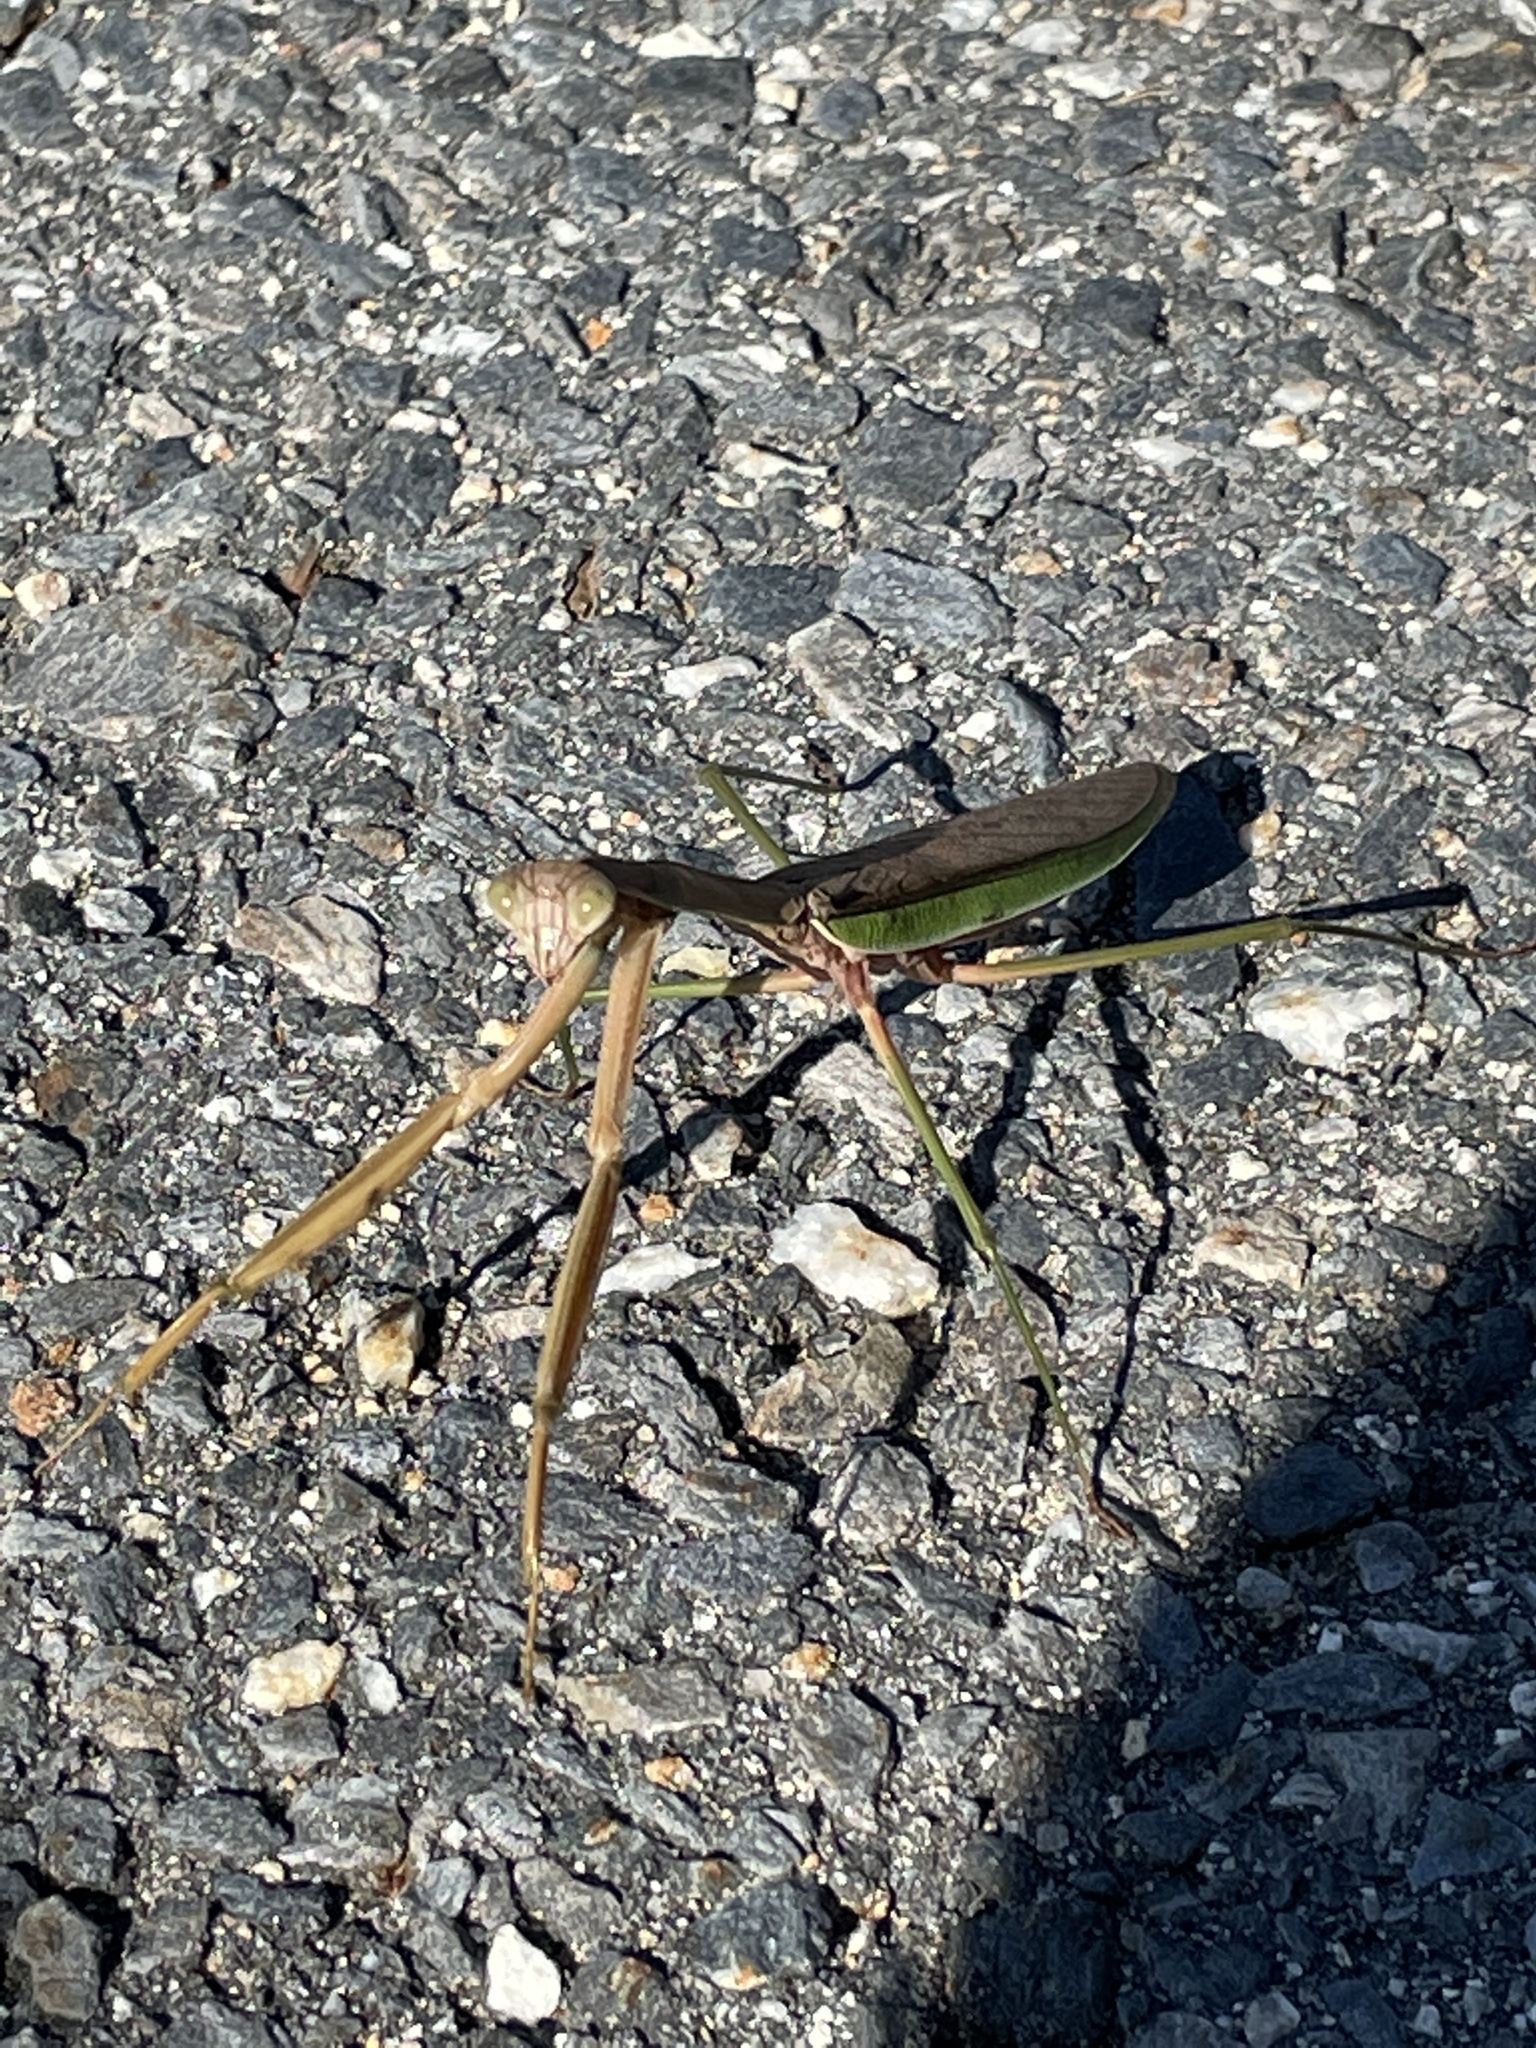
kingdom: Animalia
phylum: Arthropoda
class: Insecta
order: Mantodea
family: Mantidae
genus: Tenodera
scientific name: Tenodera sinensis
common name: Chinese mantis
